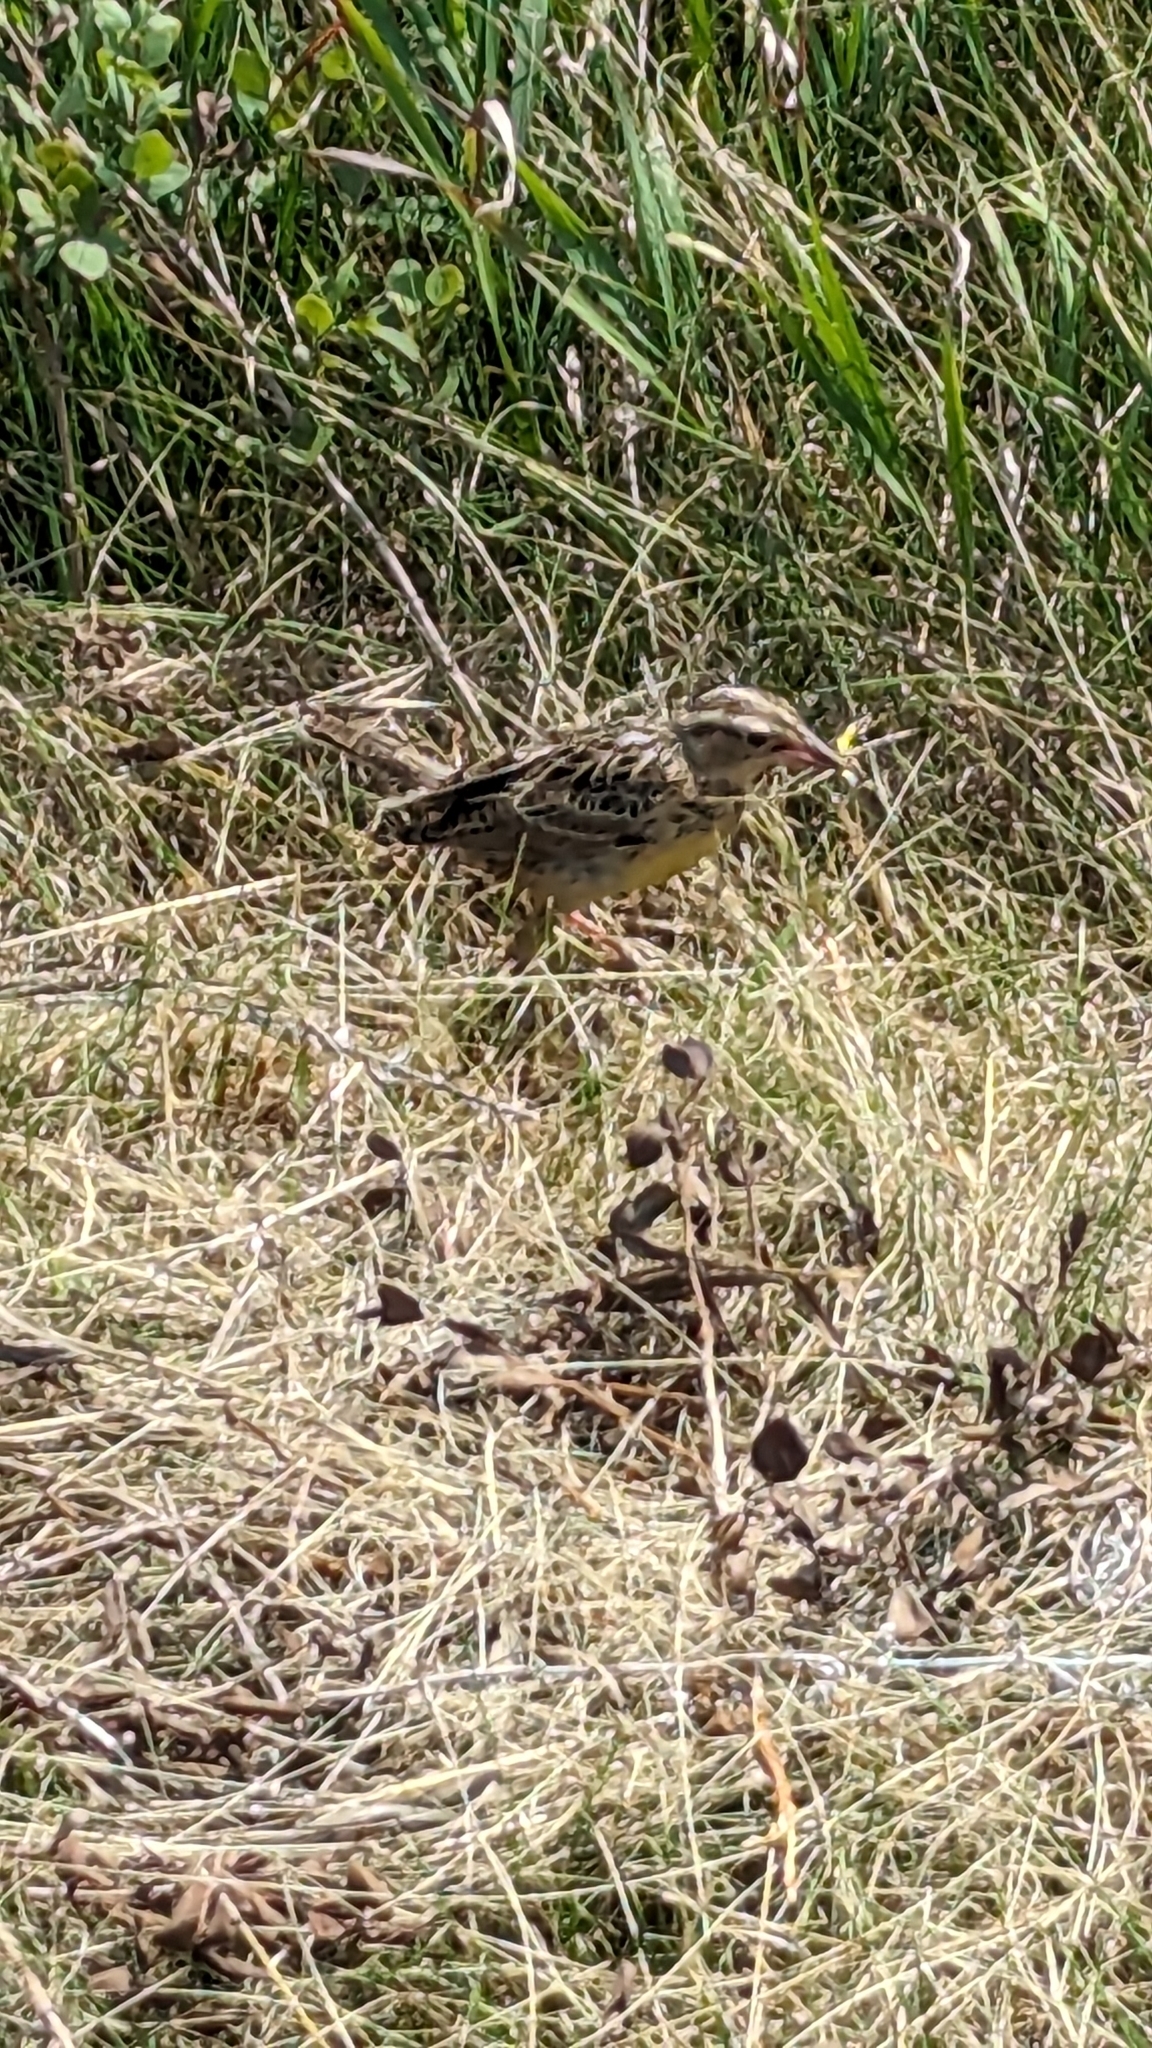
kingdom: Animalia
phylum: Chordata
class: Aves
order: Passeriformes
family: Icteridae
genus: Sturnella
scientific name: Sturnella neglecta
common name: Western meadowlark
